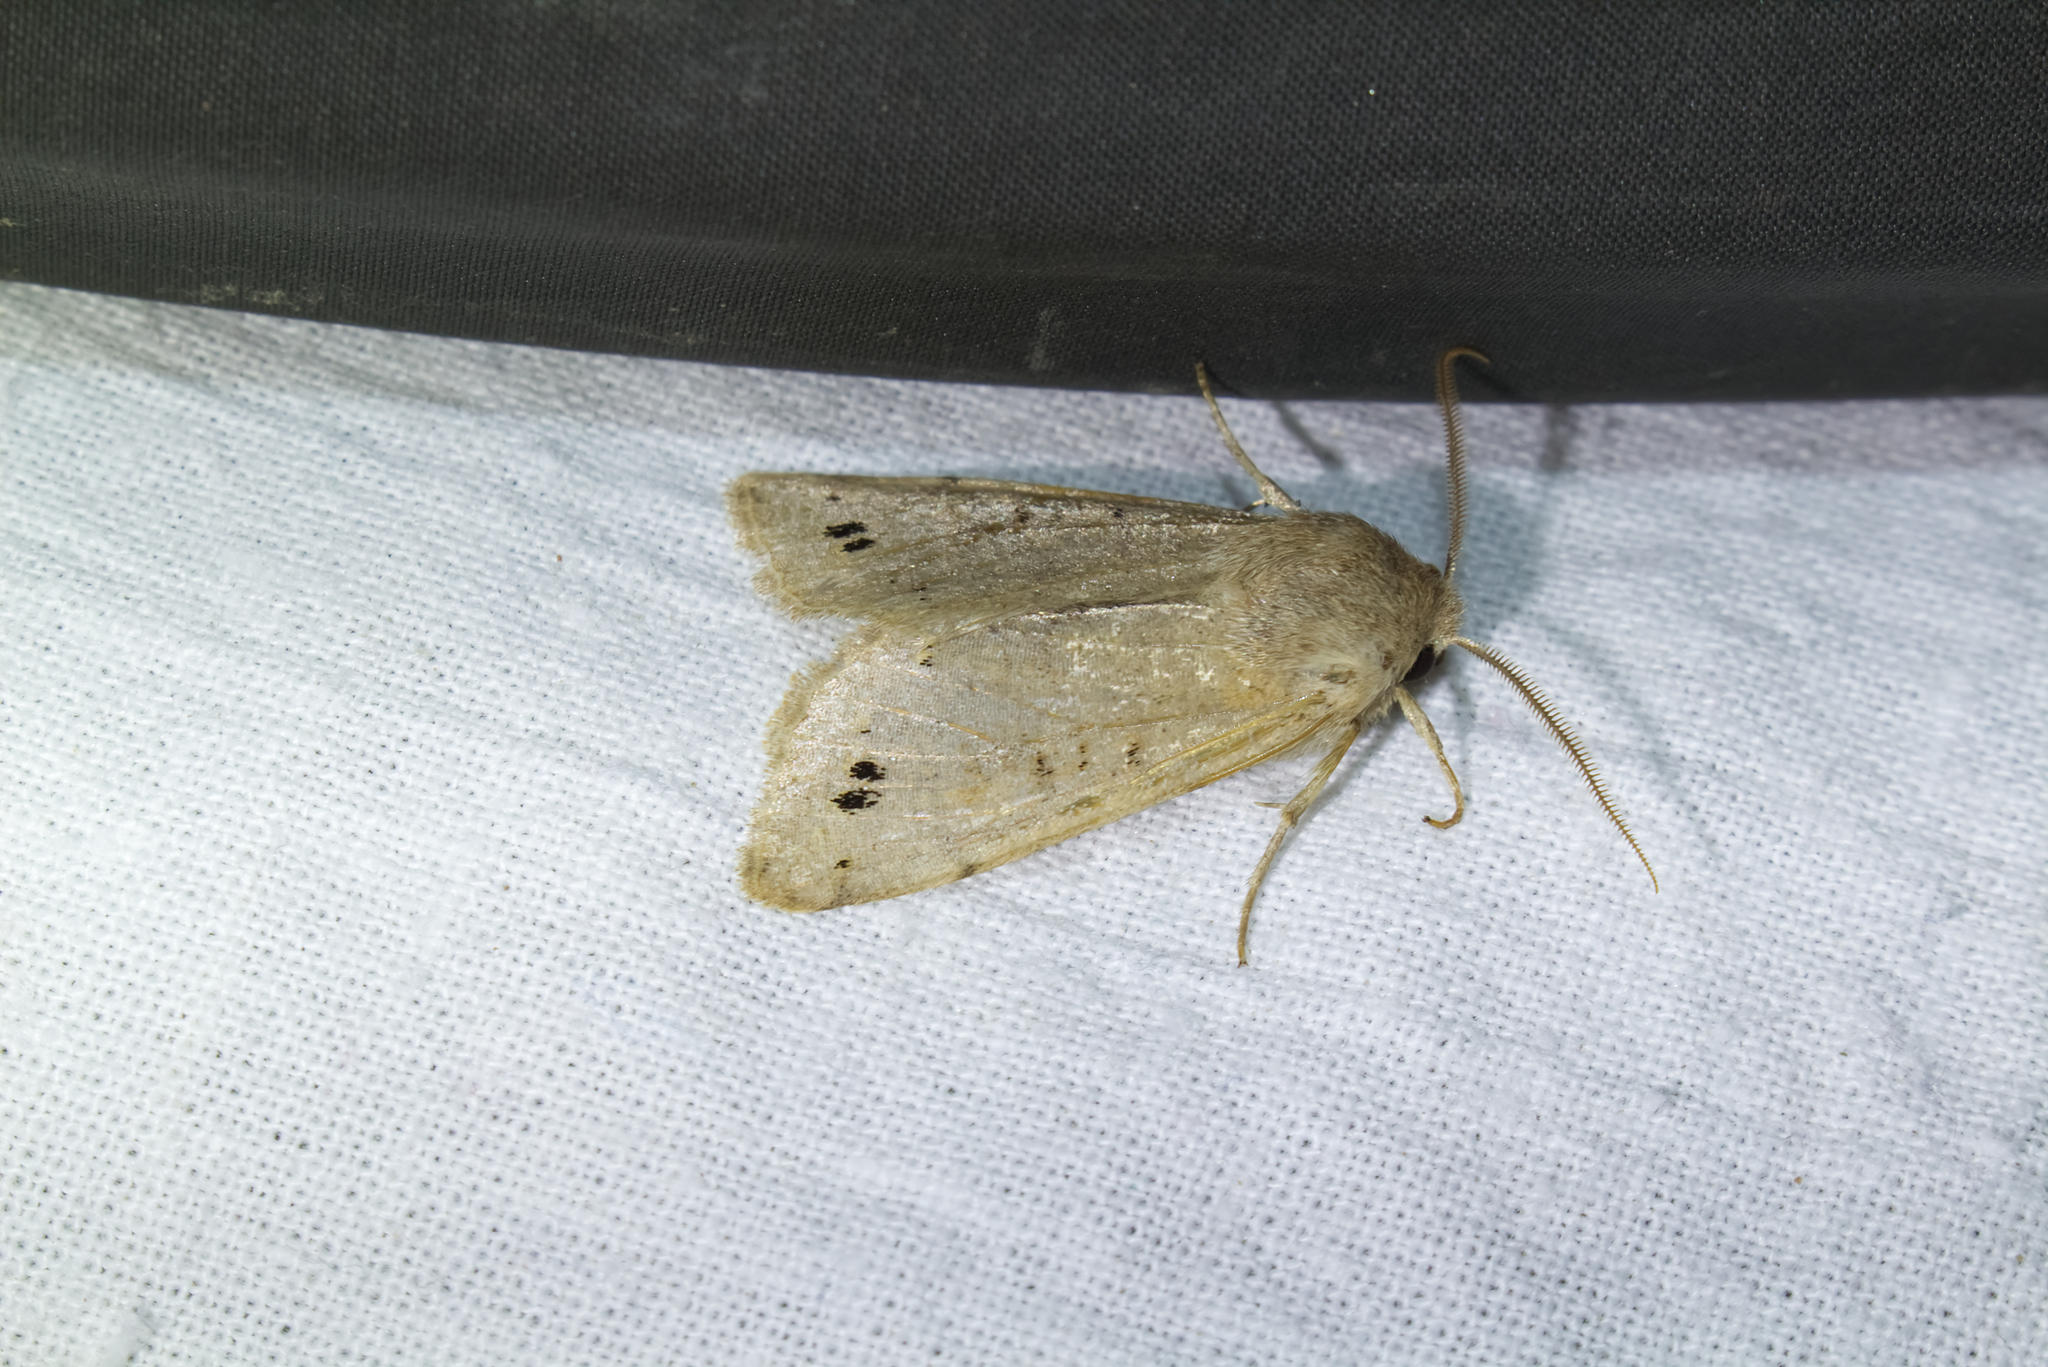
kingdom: Animalia
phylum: Arthropoda
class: Insecta
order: Lepidoptera
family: Noctuidae
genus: Anorthoa
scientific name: Anorthoa munda
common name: Twin-spotted quaker
